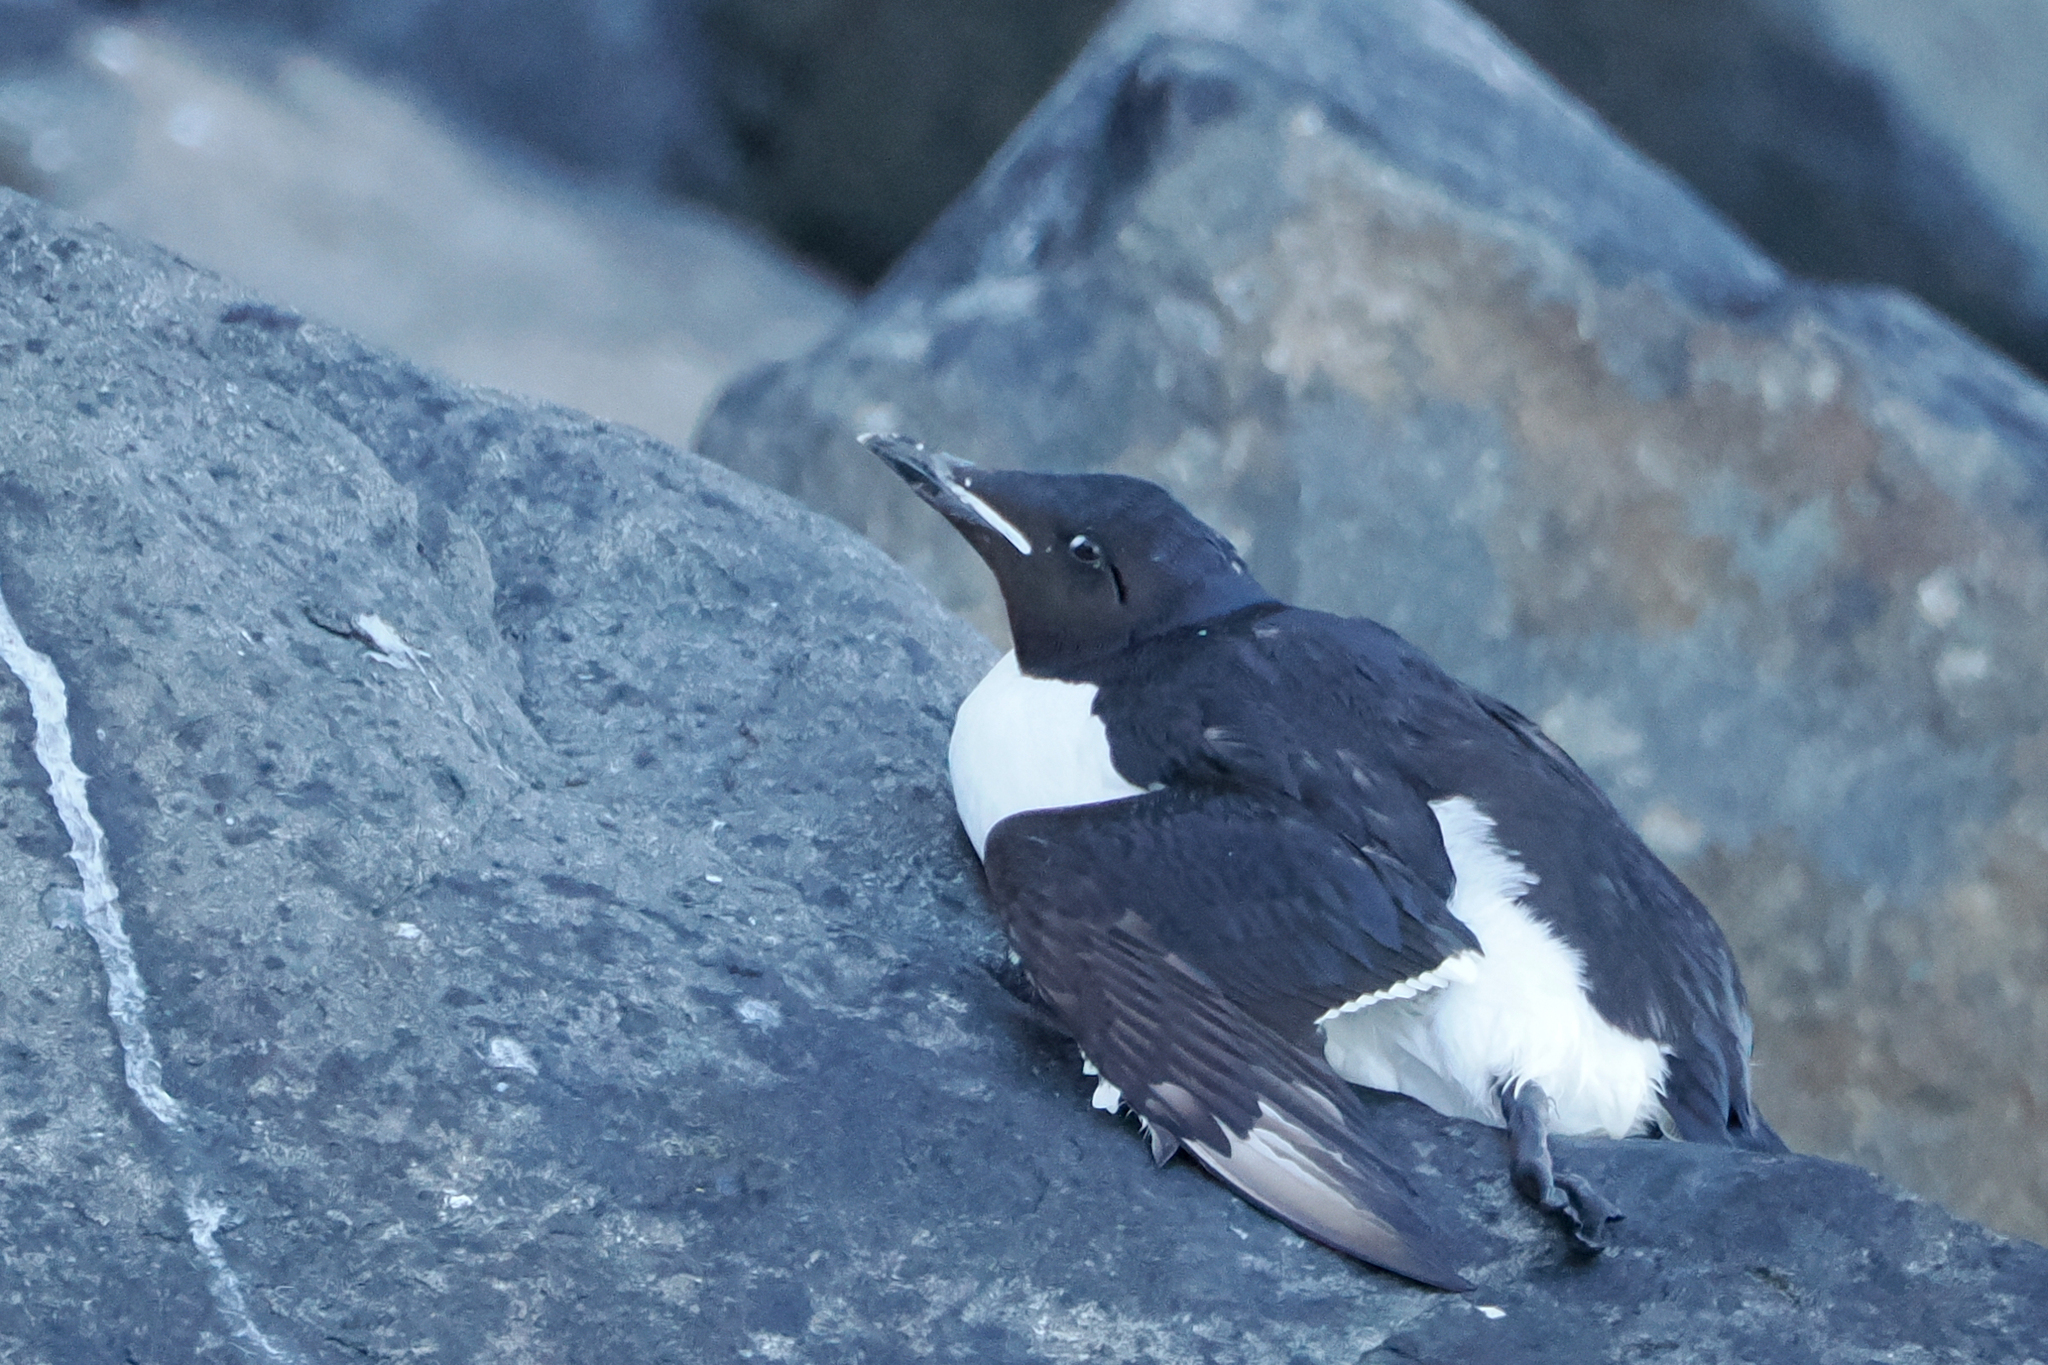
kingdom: Animalia
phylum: Chordata
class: Aves
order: Charadriiformes
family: Alcidae
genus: Uria
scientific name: Uria lomvia
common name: Thick-billed murre
